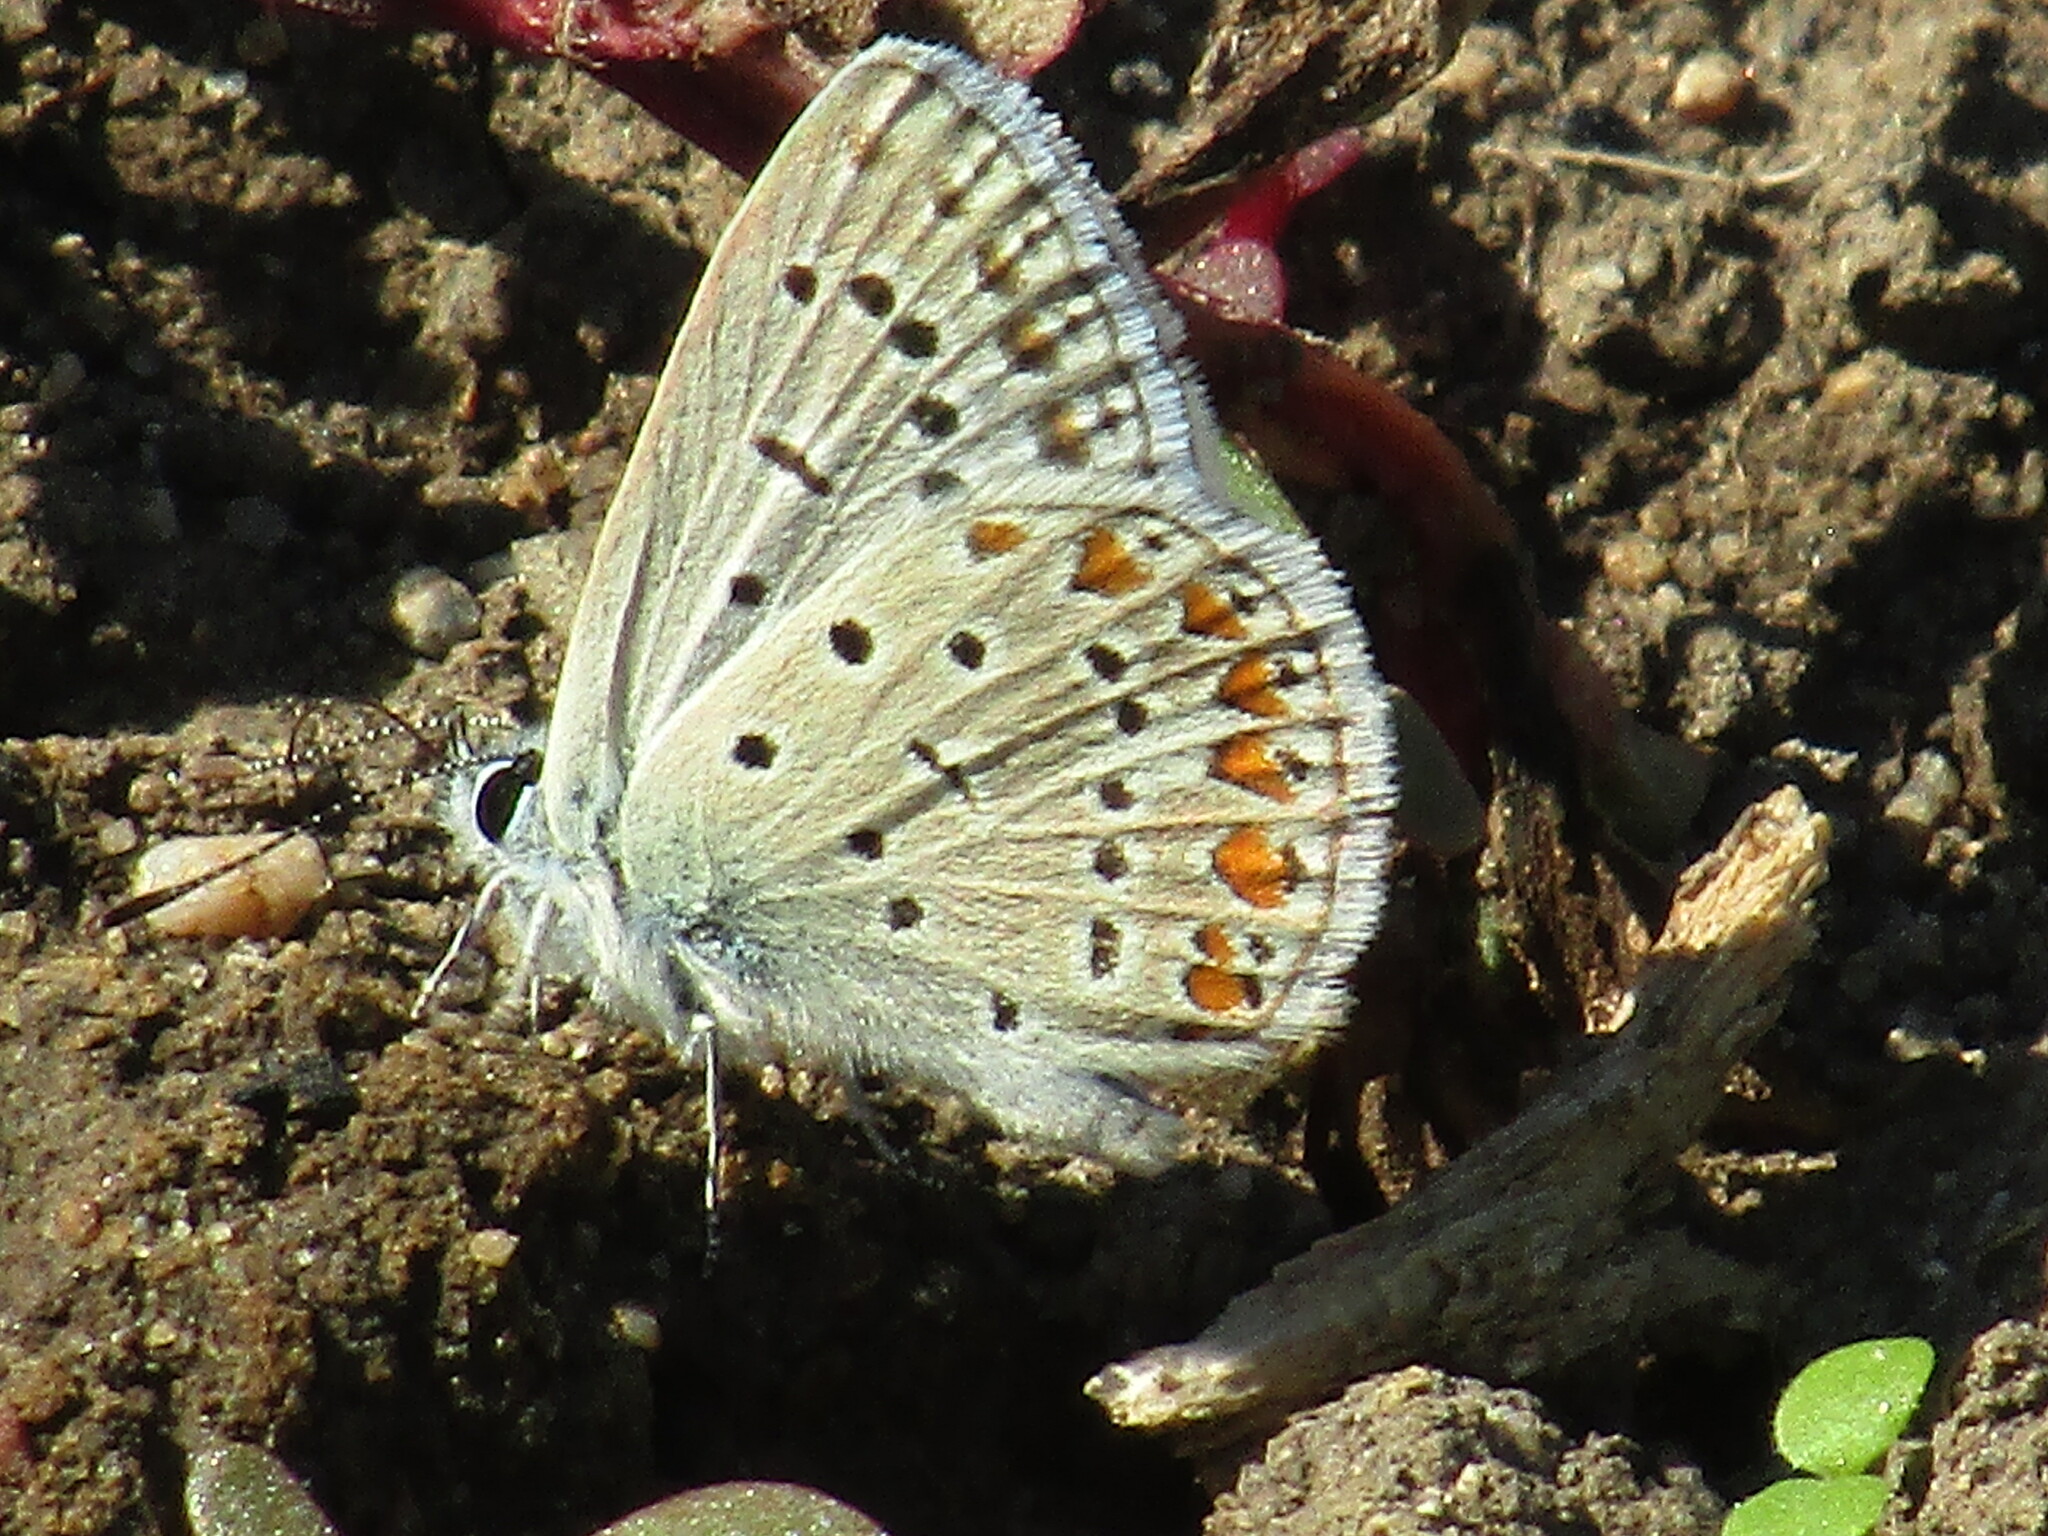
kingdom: Animalia
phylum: Arthropoda
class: Insecta
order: Lepidoptera
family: Lycaenidae
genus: Polyommatus
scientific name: Polyommatus icarus
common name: Common blue
